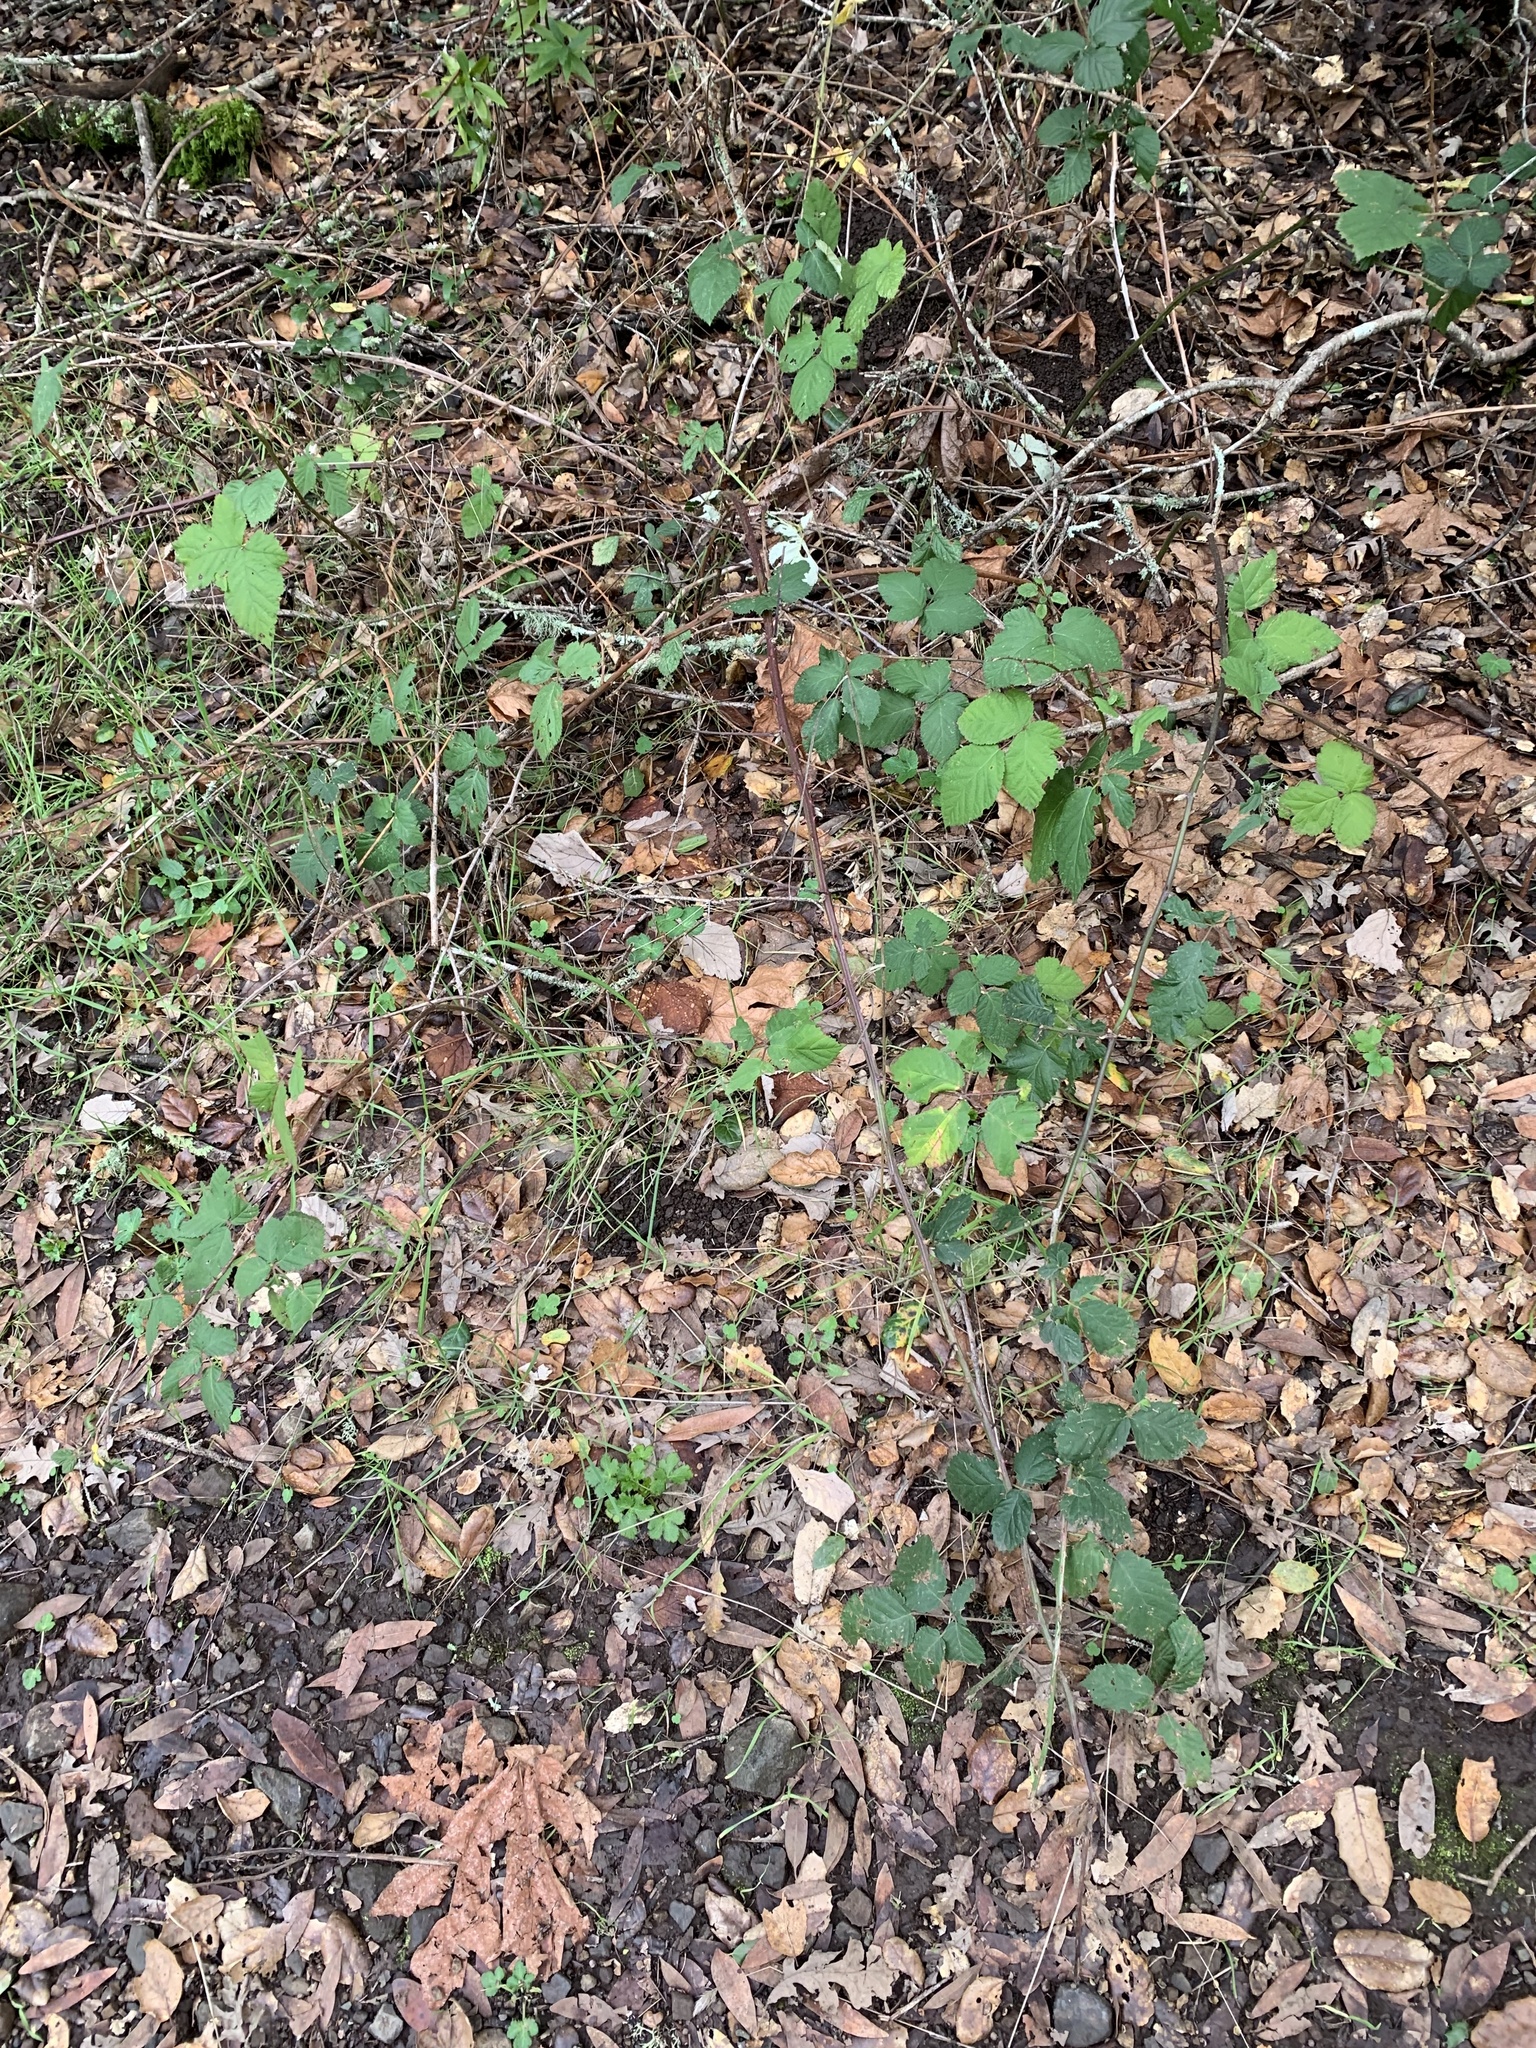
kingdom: Plantae
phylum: Tracheophyta
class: Magnoliopsida
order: Rosales
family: Rosaceae
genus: Rubus
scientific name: Rubus armeniacus
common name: Himalayan blackberry
